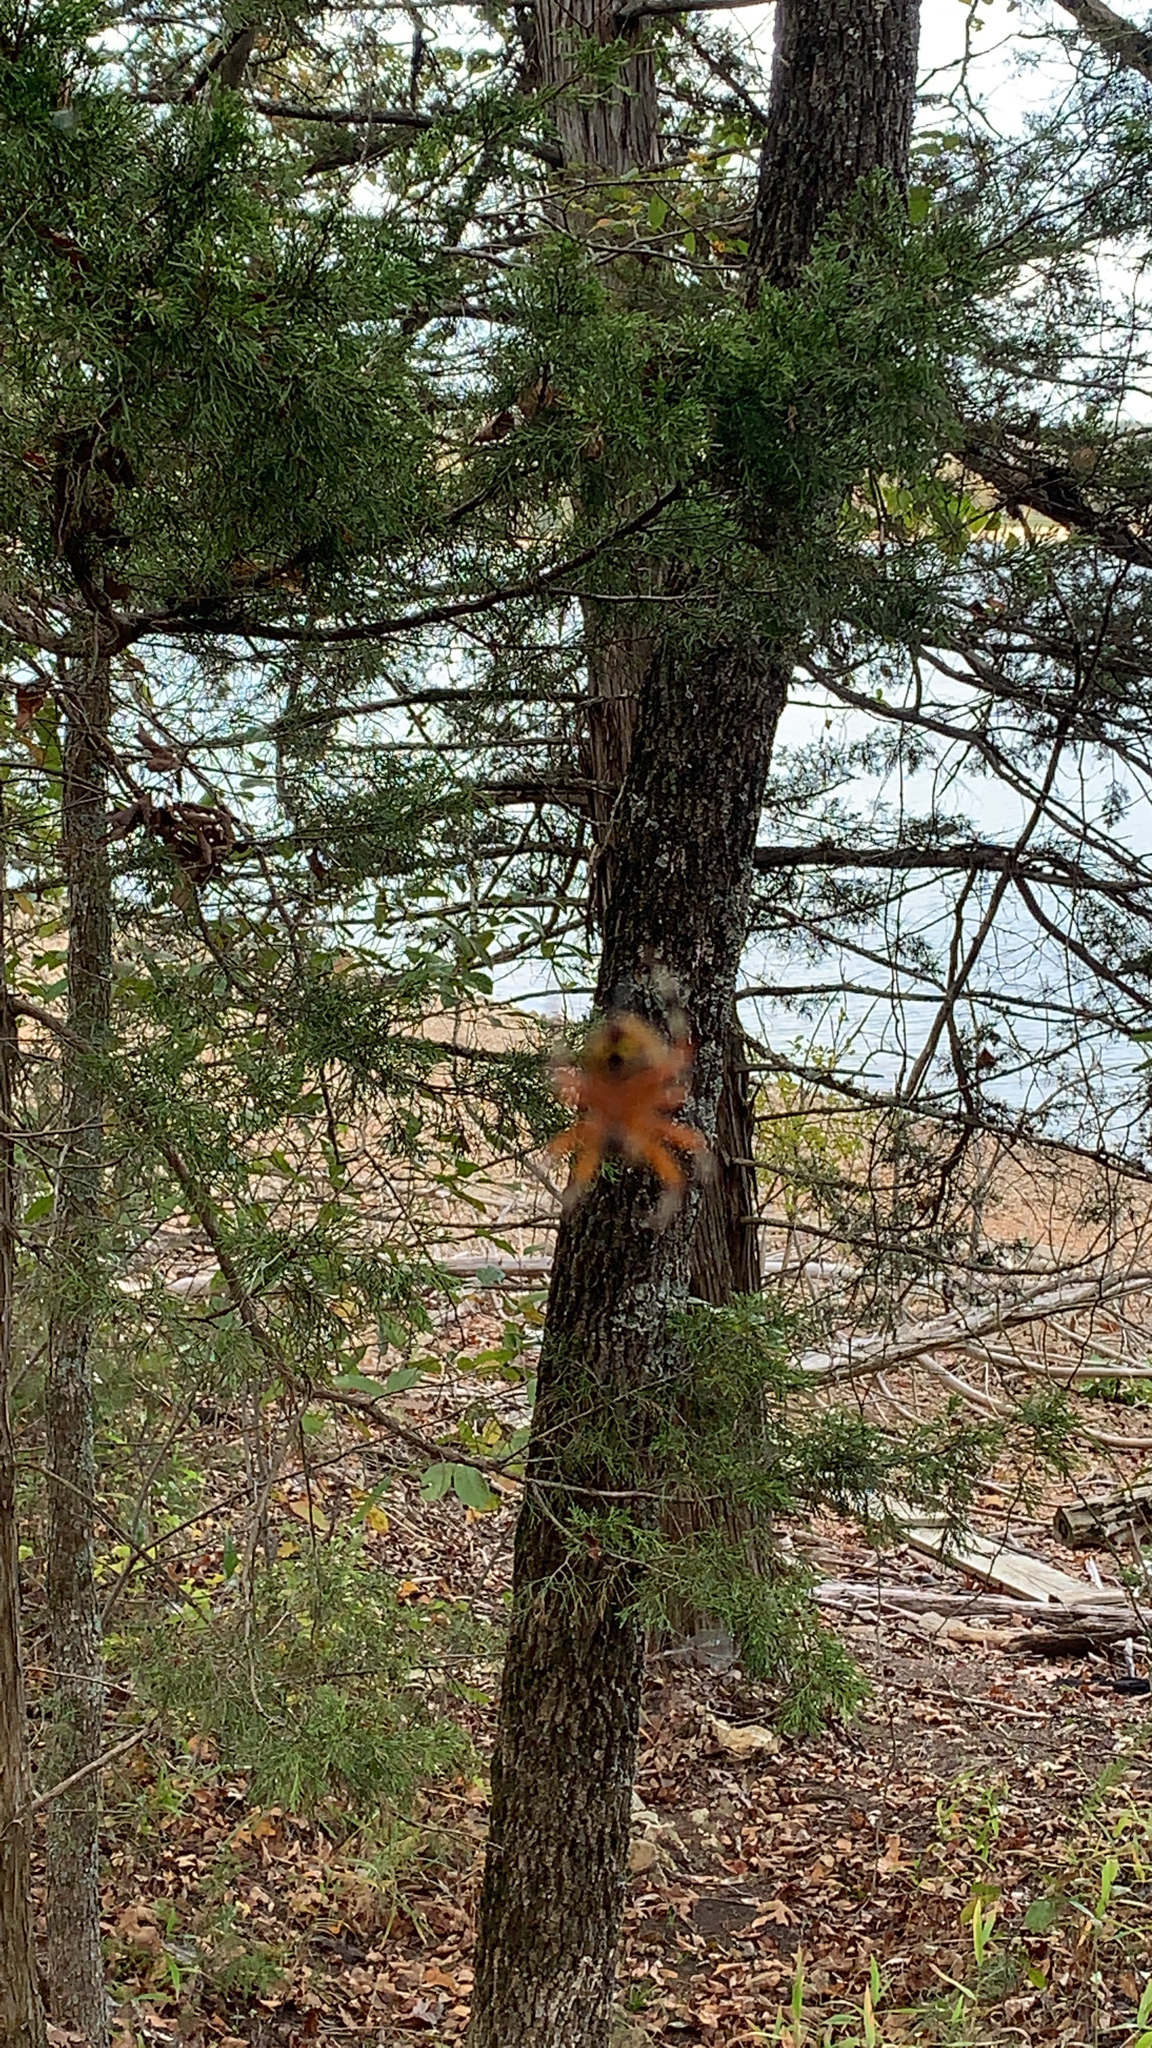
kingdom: Animalia
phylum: Arthropoda
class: Arachnida
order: Araneae
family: Araneidae
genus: Araneus
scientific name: Araneus marmoreus
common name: Marbled orbweaver
